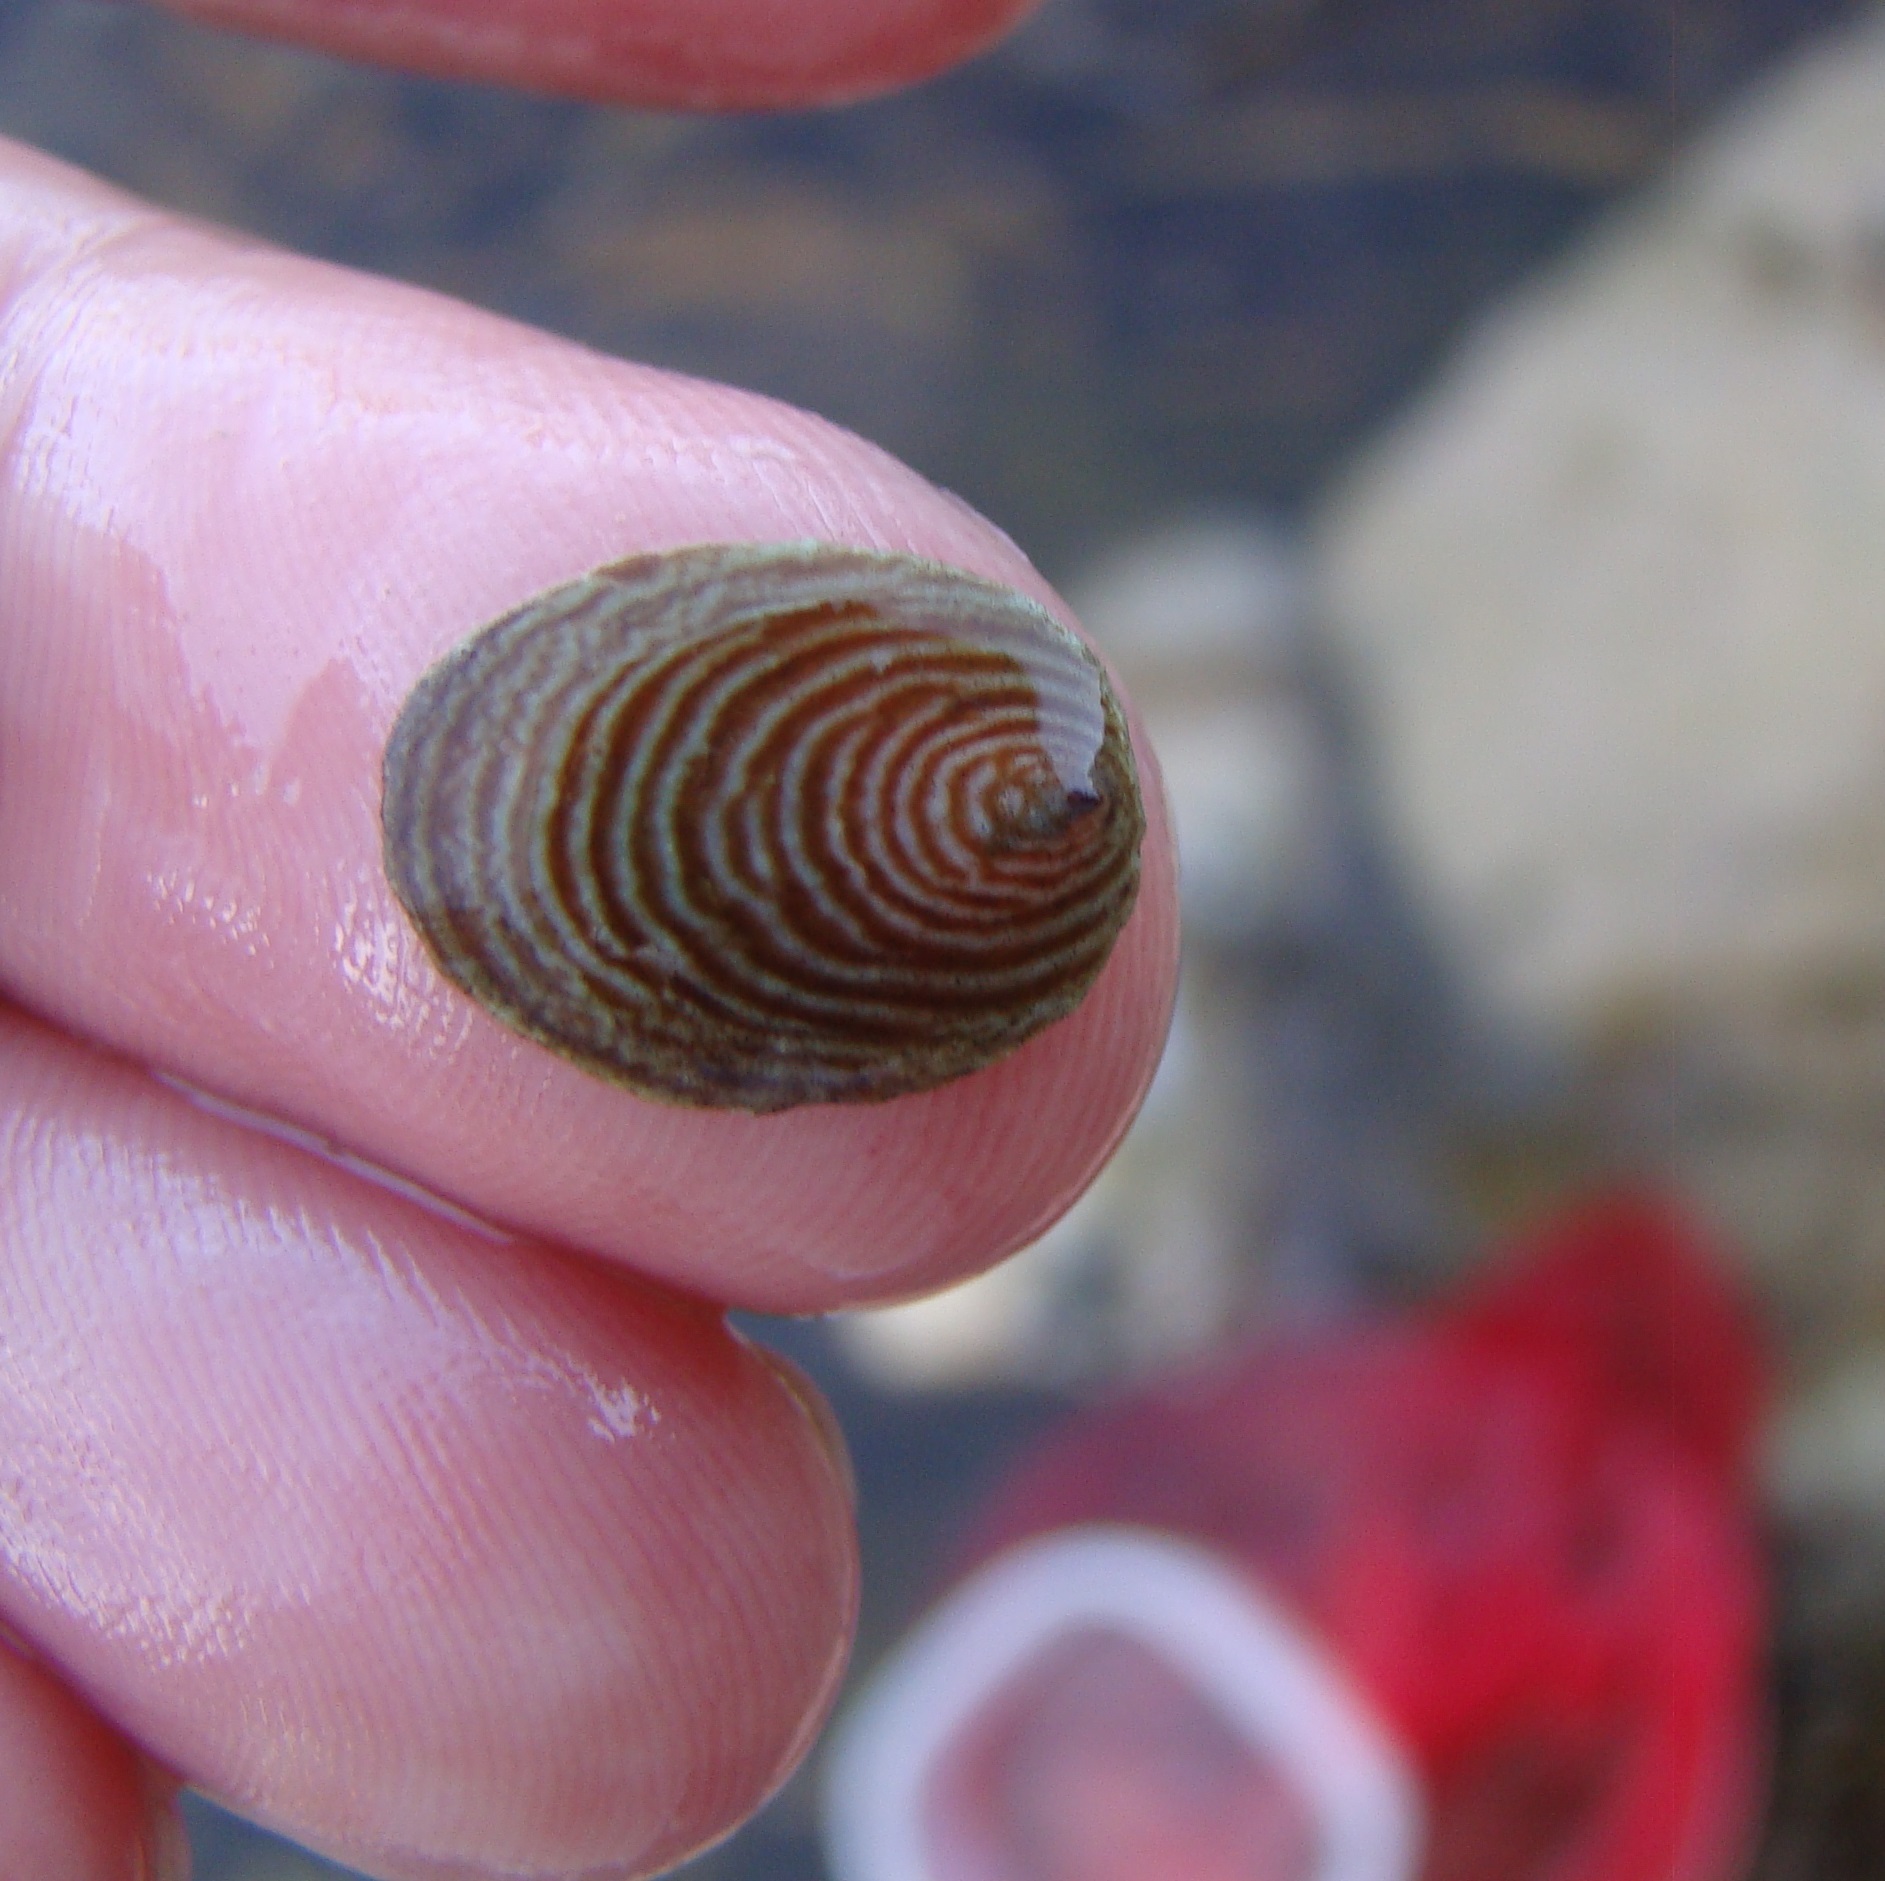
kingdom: Animalia
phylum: Mollusca
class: Gastropoda
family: Lottiidae
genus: Atalacmea
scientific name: Atalacmea fragilis
